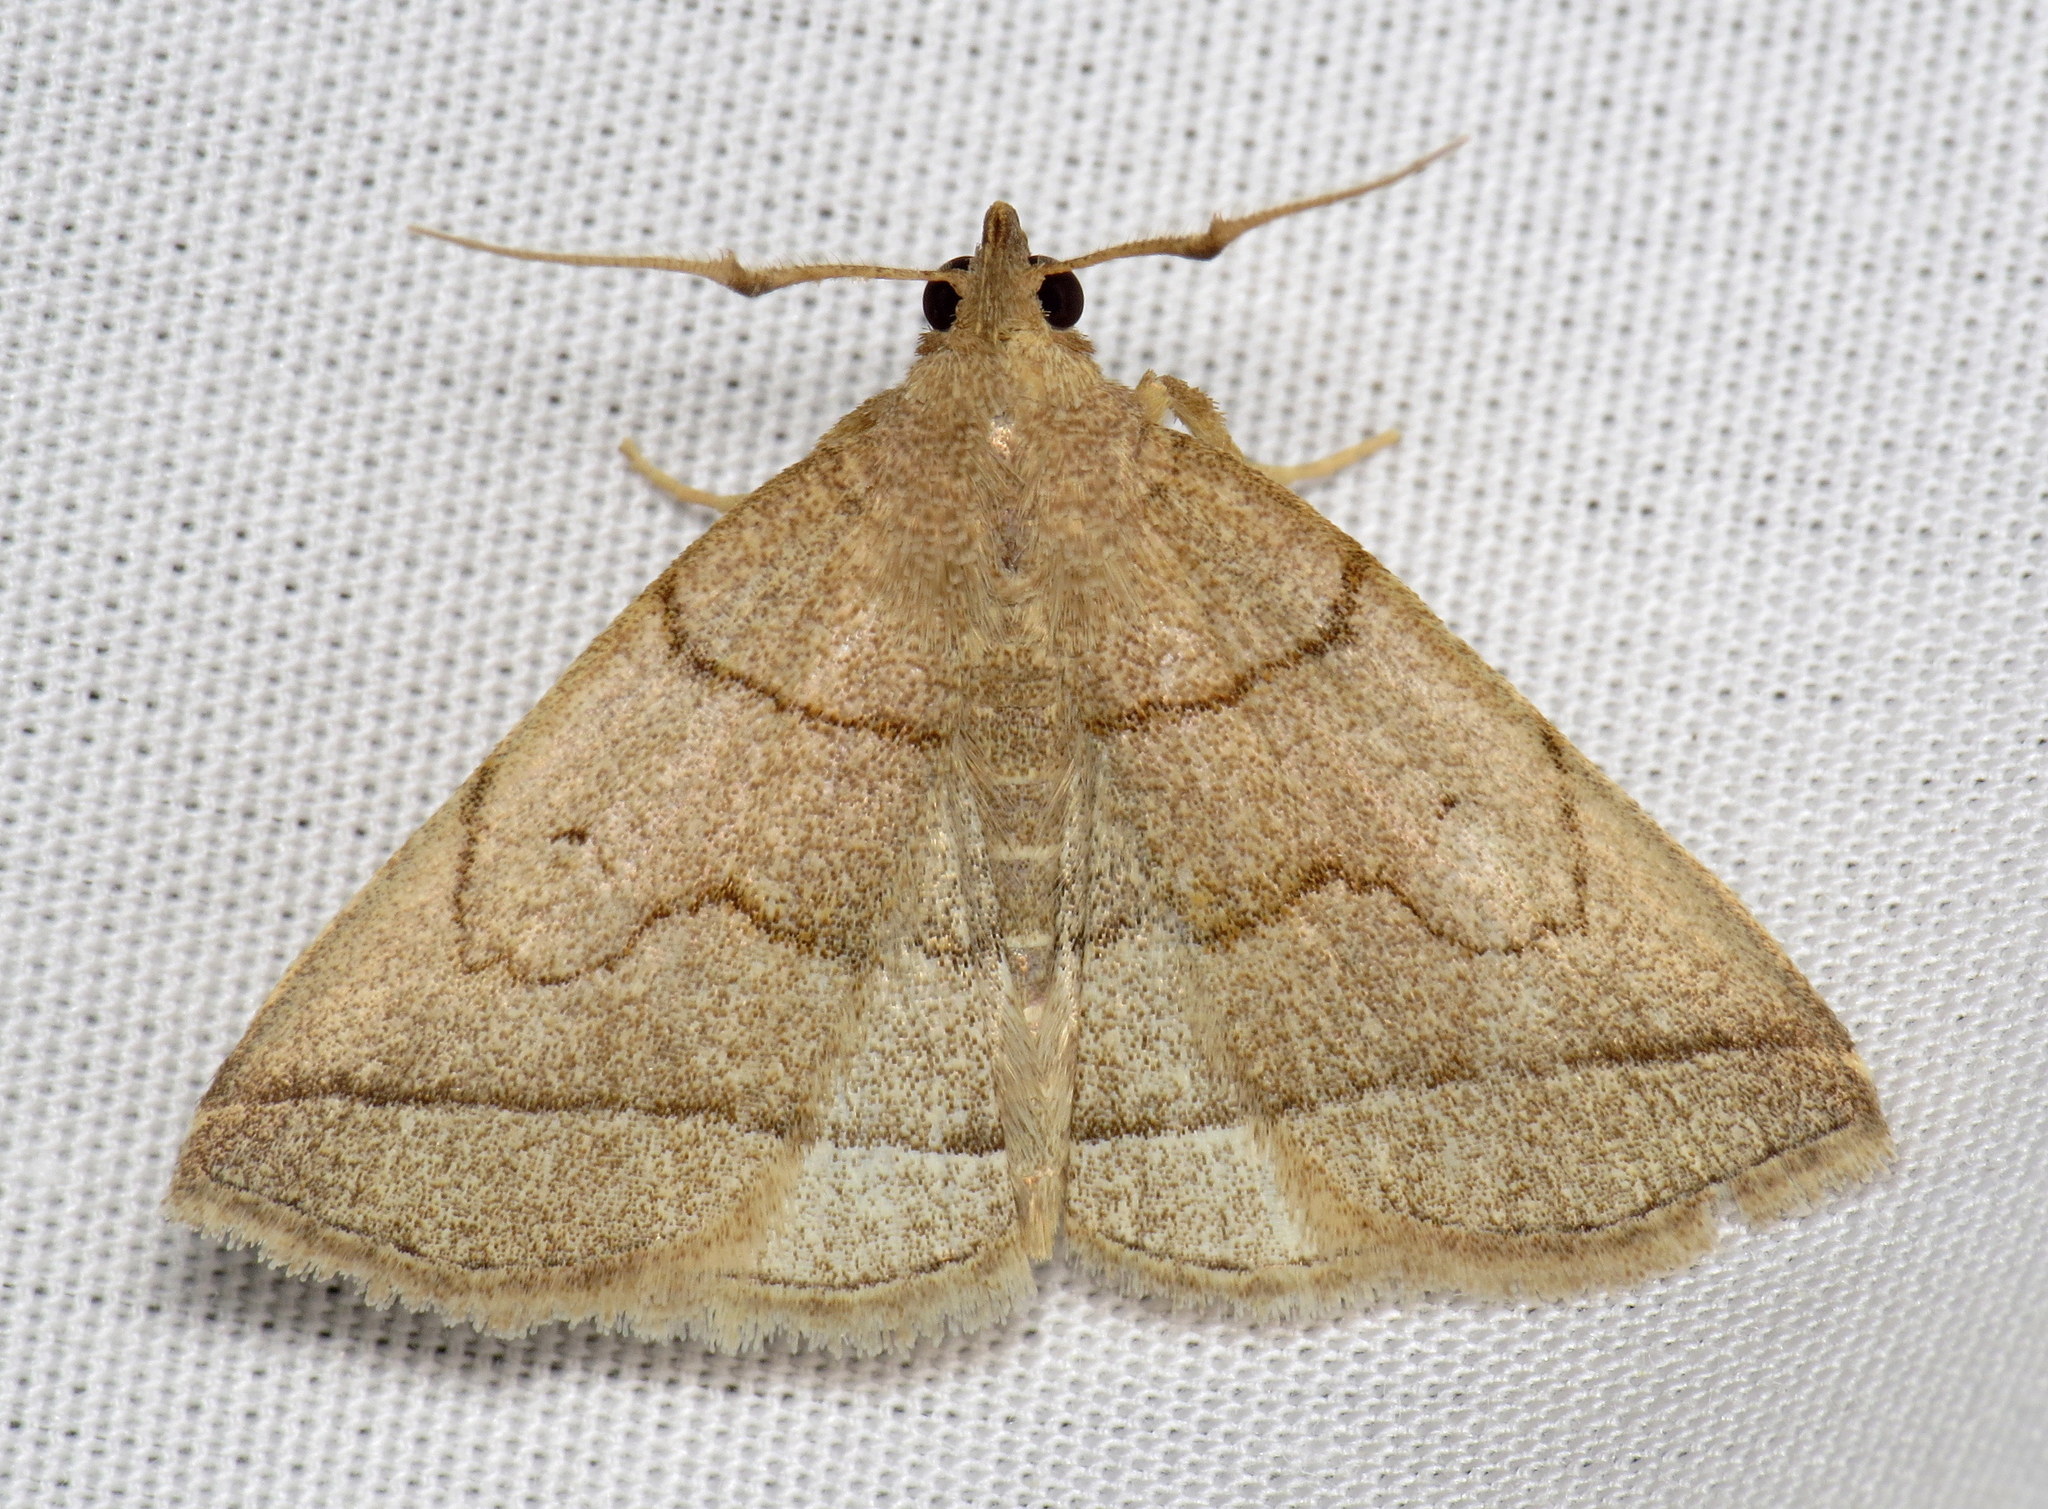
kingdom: Animalia
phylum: Arthropoda
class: Insecta
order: Lepidoptera
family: Erebidae
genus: Zanclognatha
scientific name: Zanclognatha cruralis
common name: Early fan-foot
